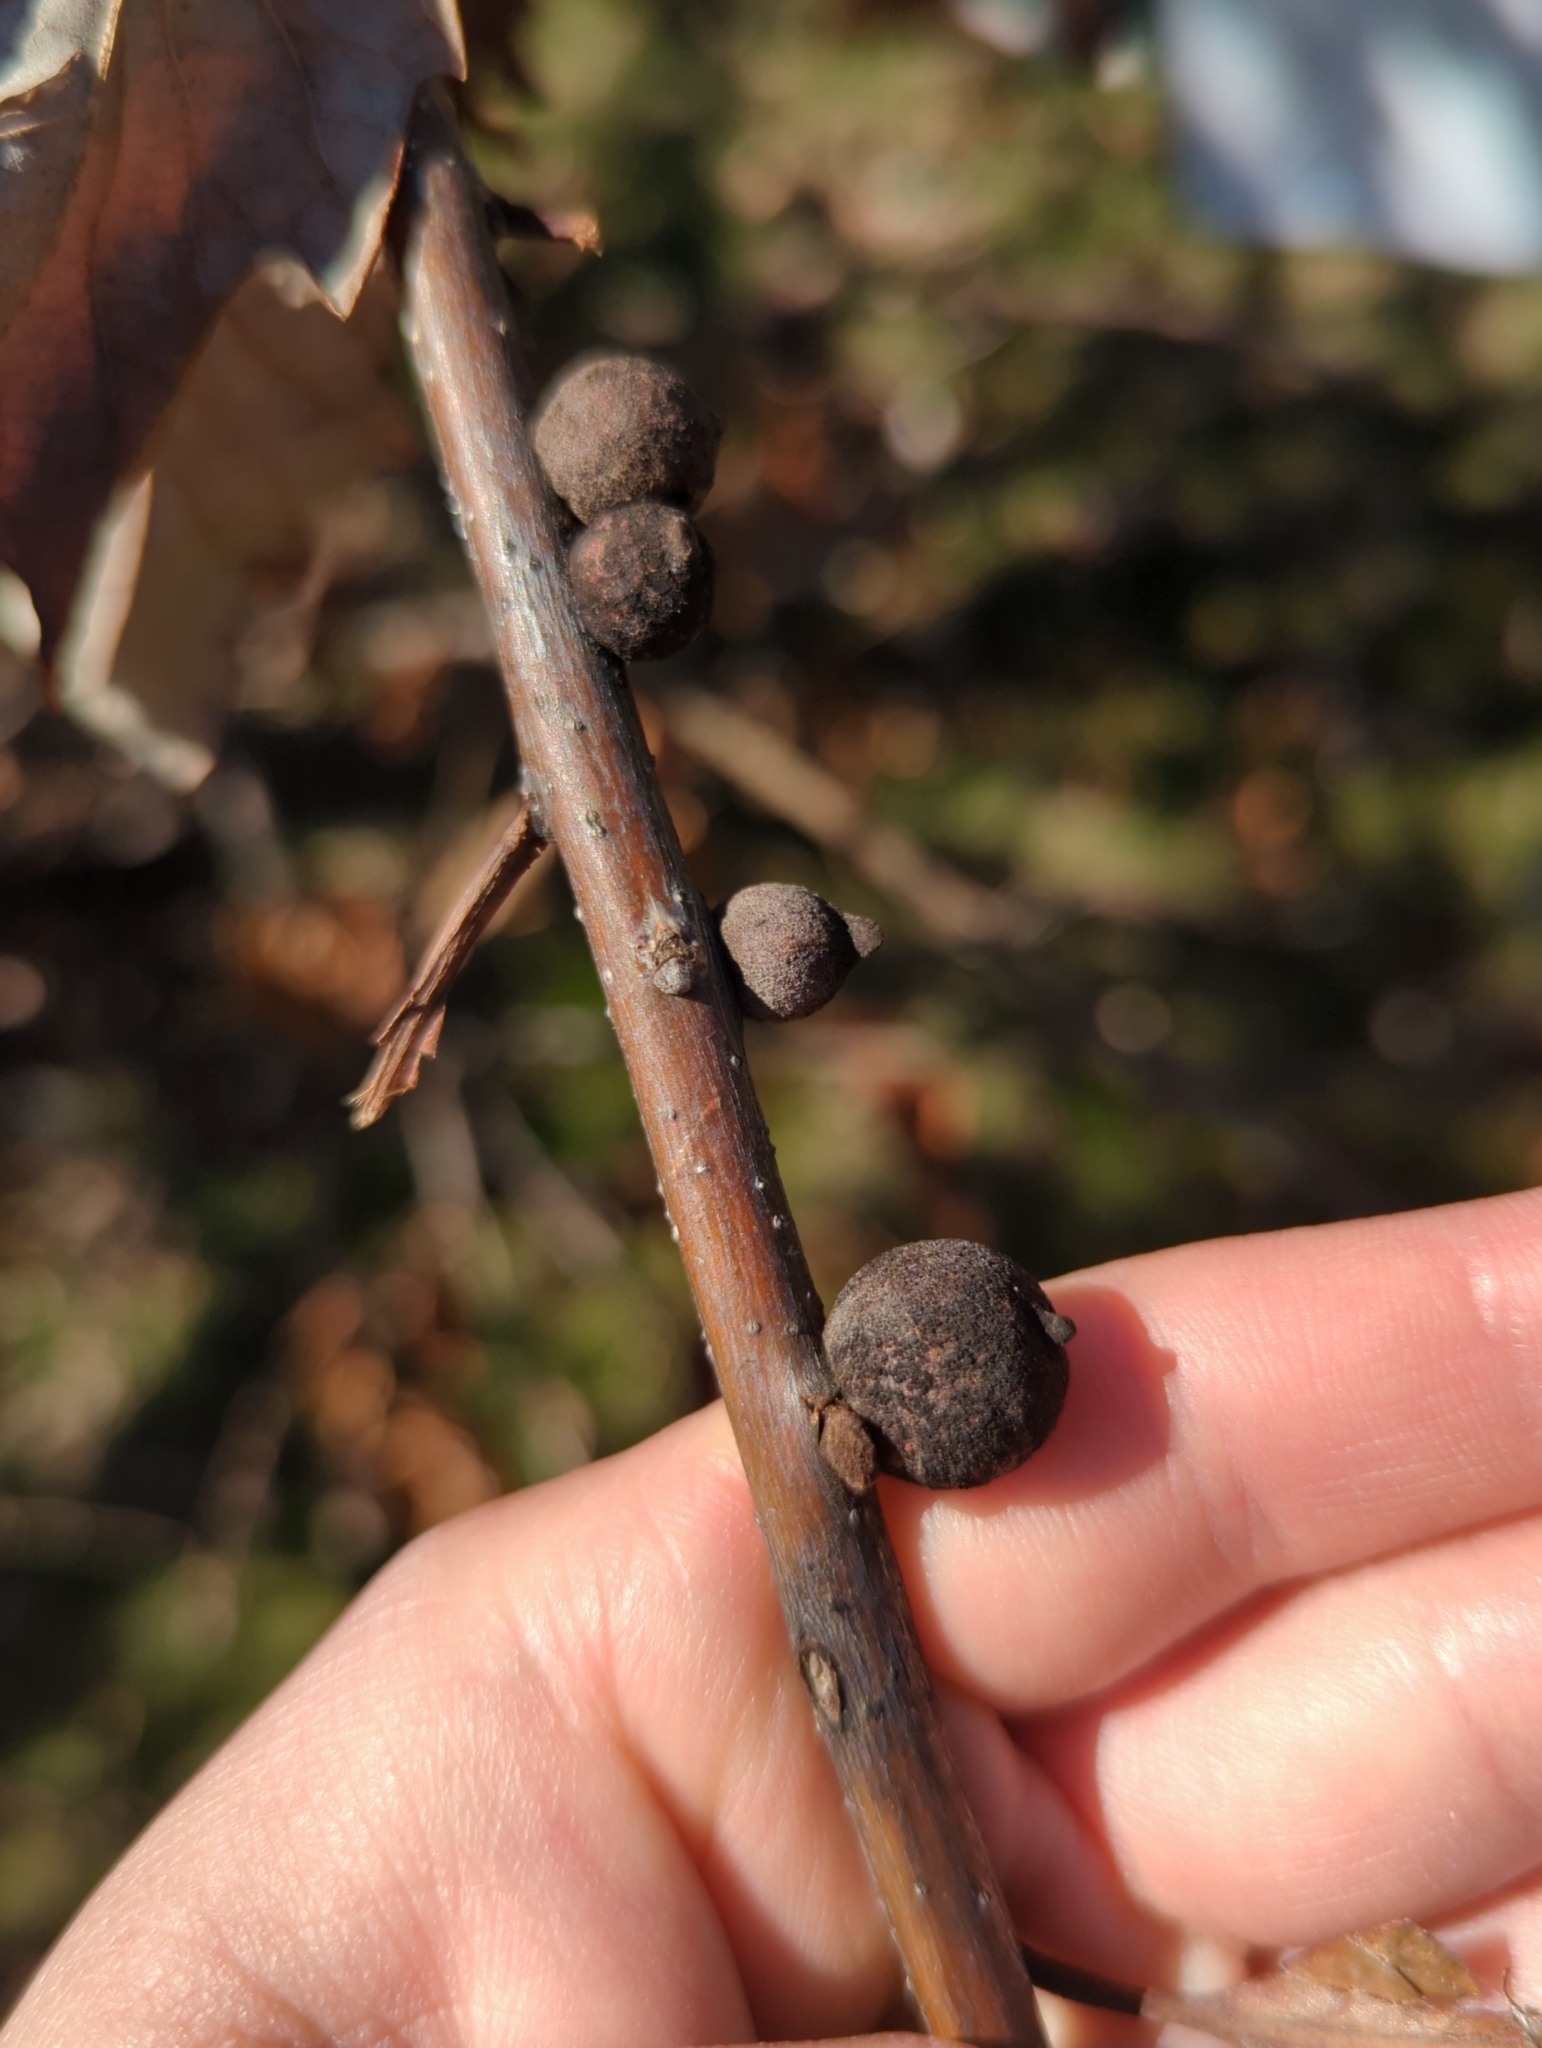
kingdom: Animalia
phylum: Arthropoda
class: Insecta
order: Hymenoptera
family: Cynipidae
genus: Disholcaspis
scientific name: Disholcaspis
